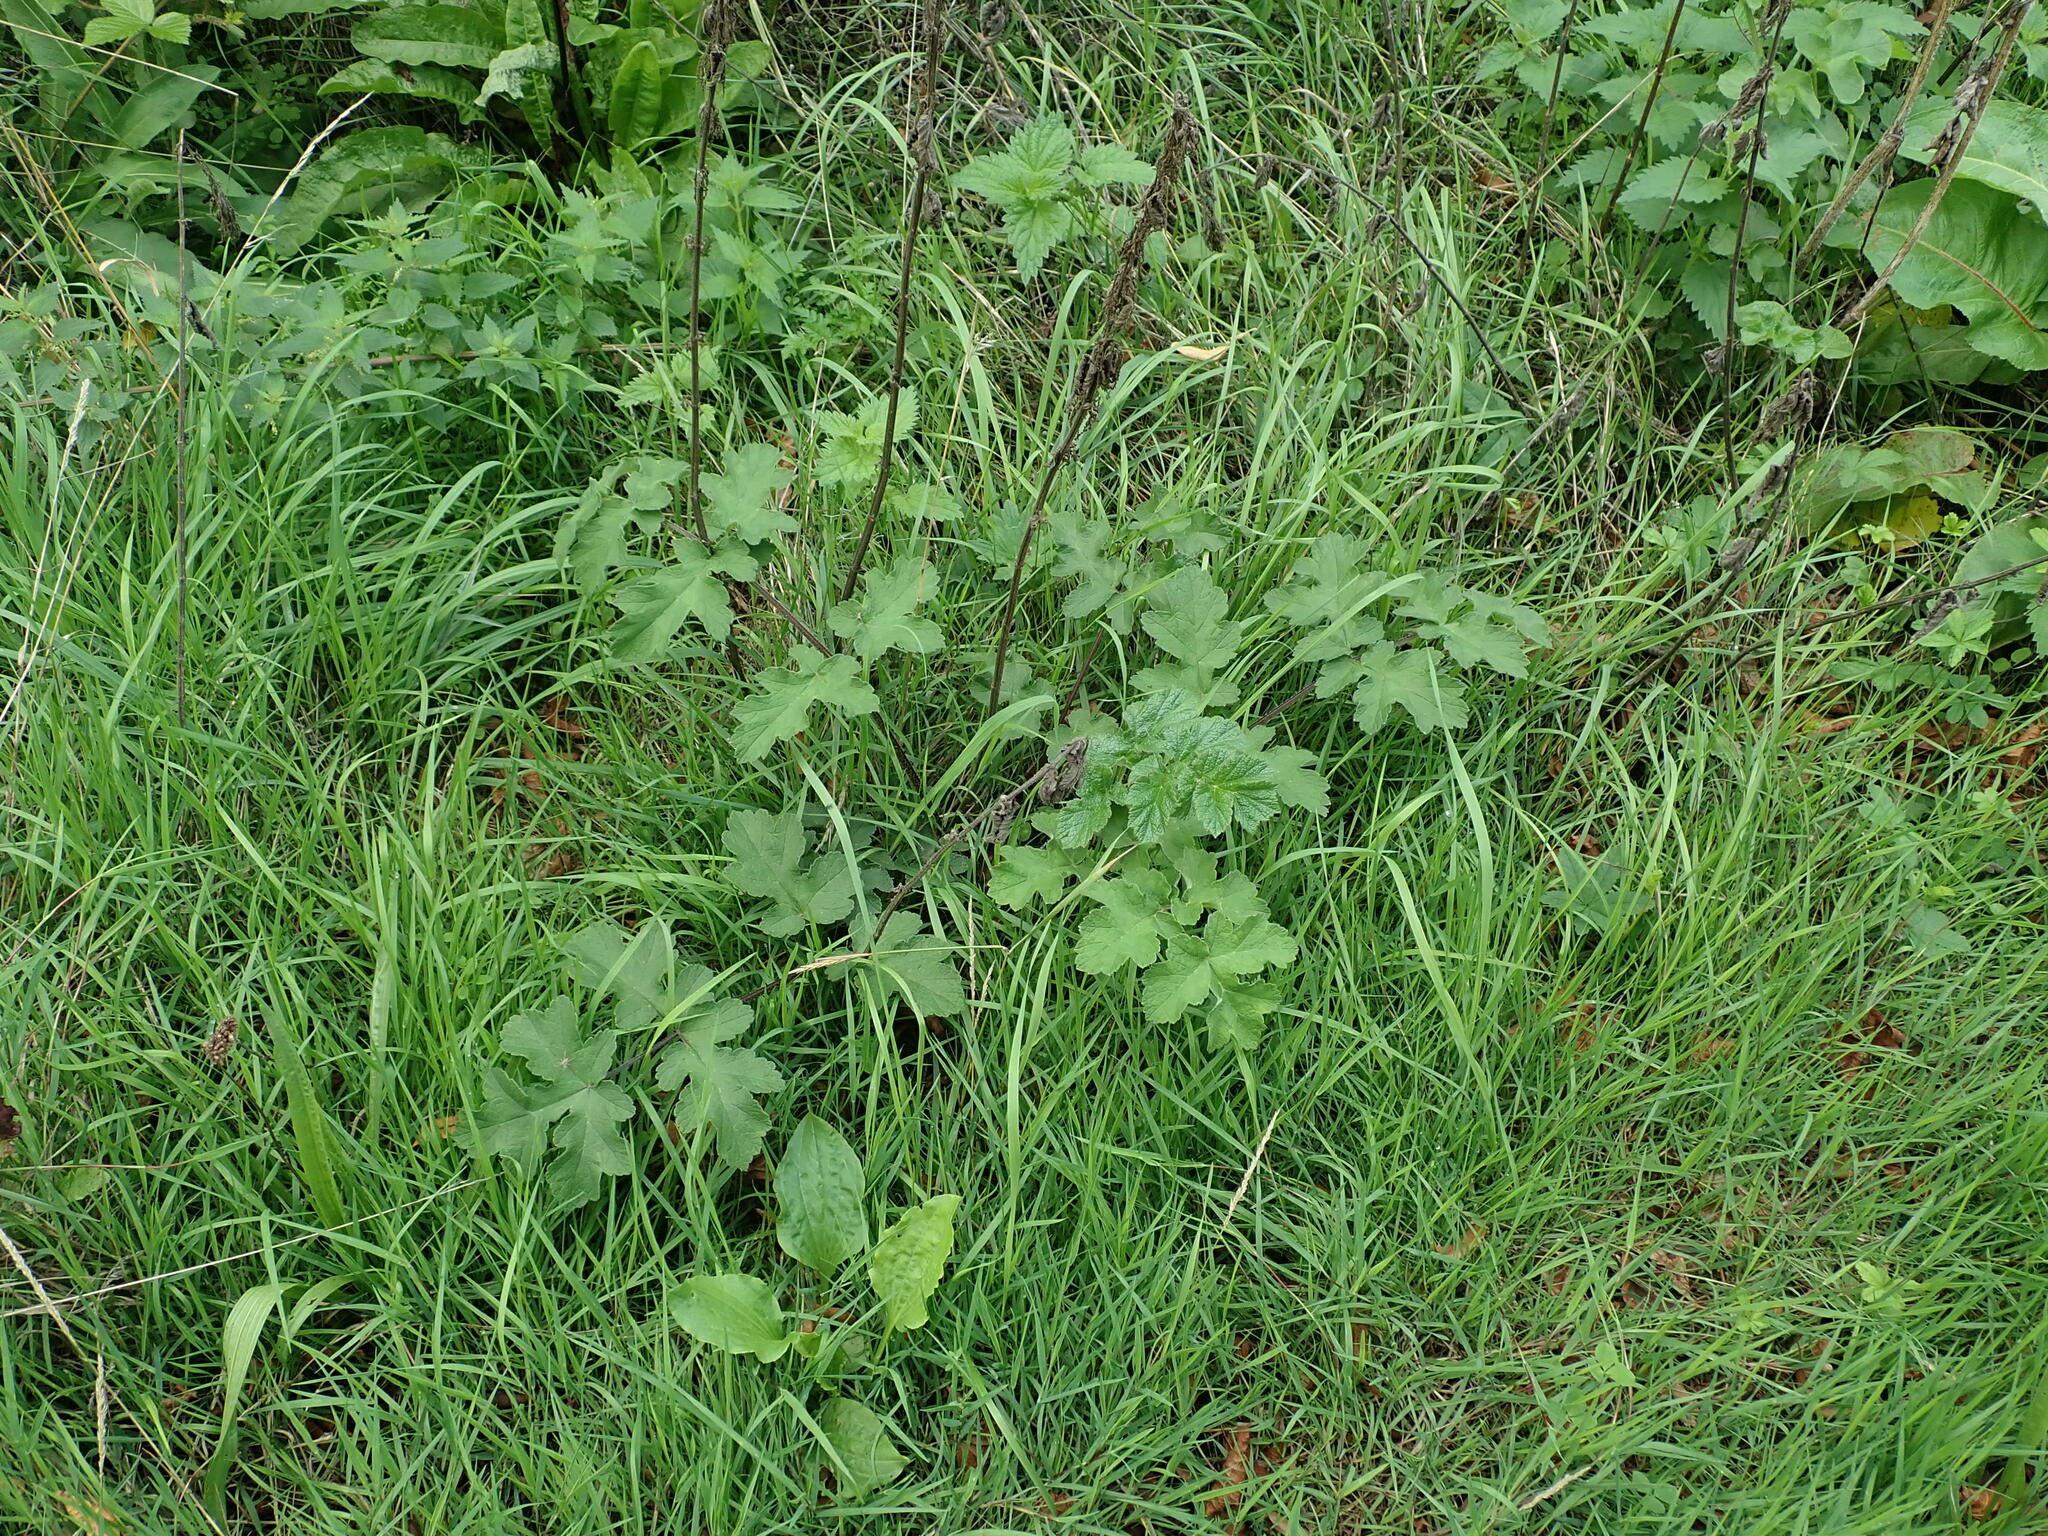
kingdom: Plantae
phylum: Tracheophyta
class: Magnoliopsida
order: Apiales
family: Apiaceae
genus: Heracleum
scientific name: Heracleum sphondylium
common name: Hogweed
